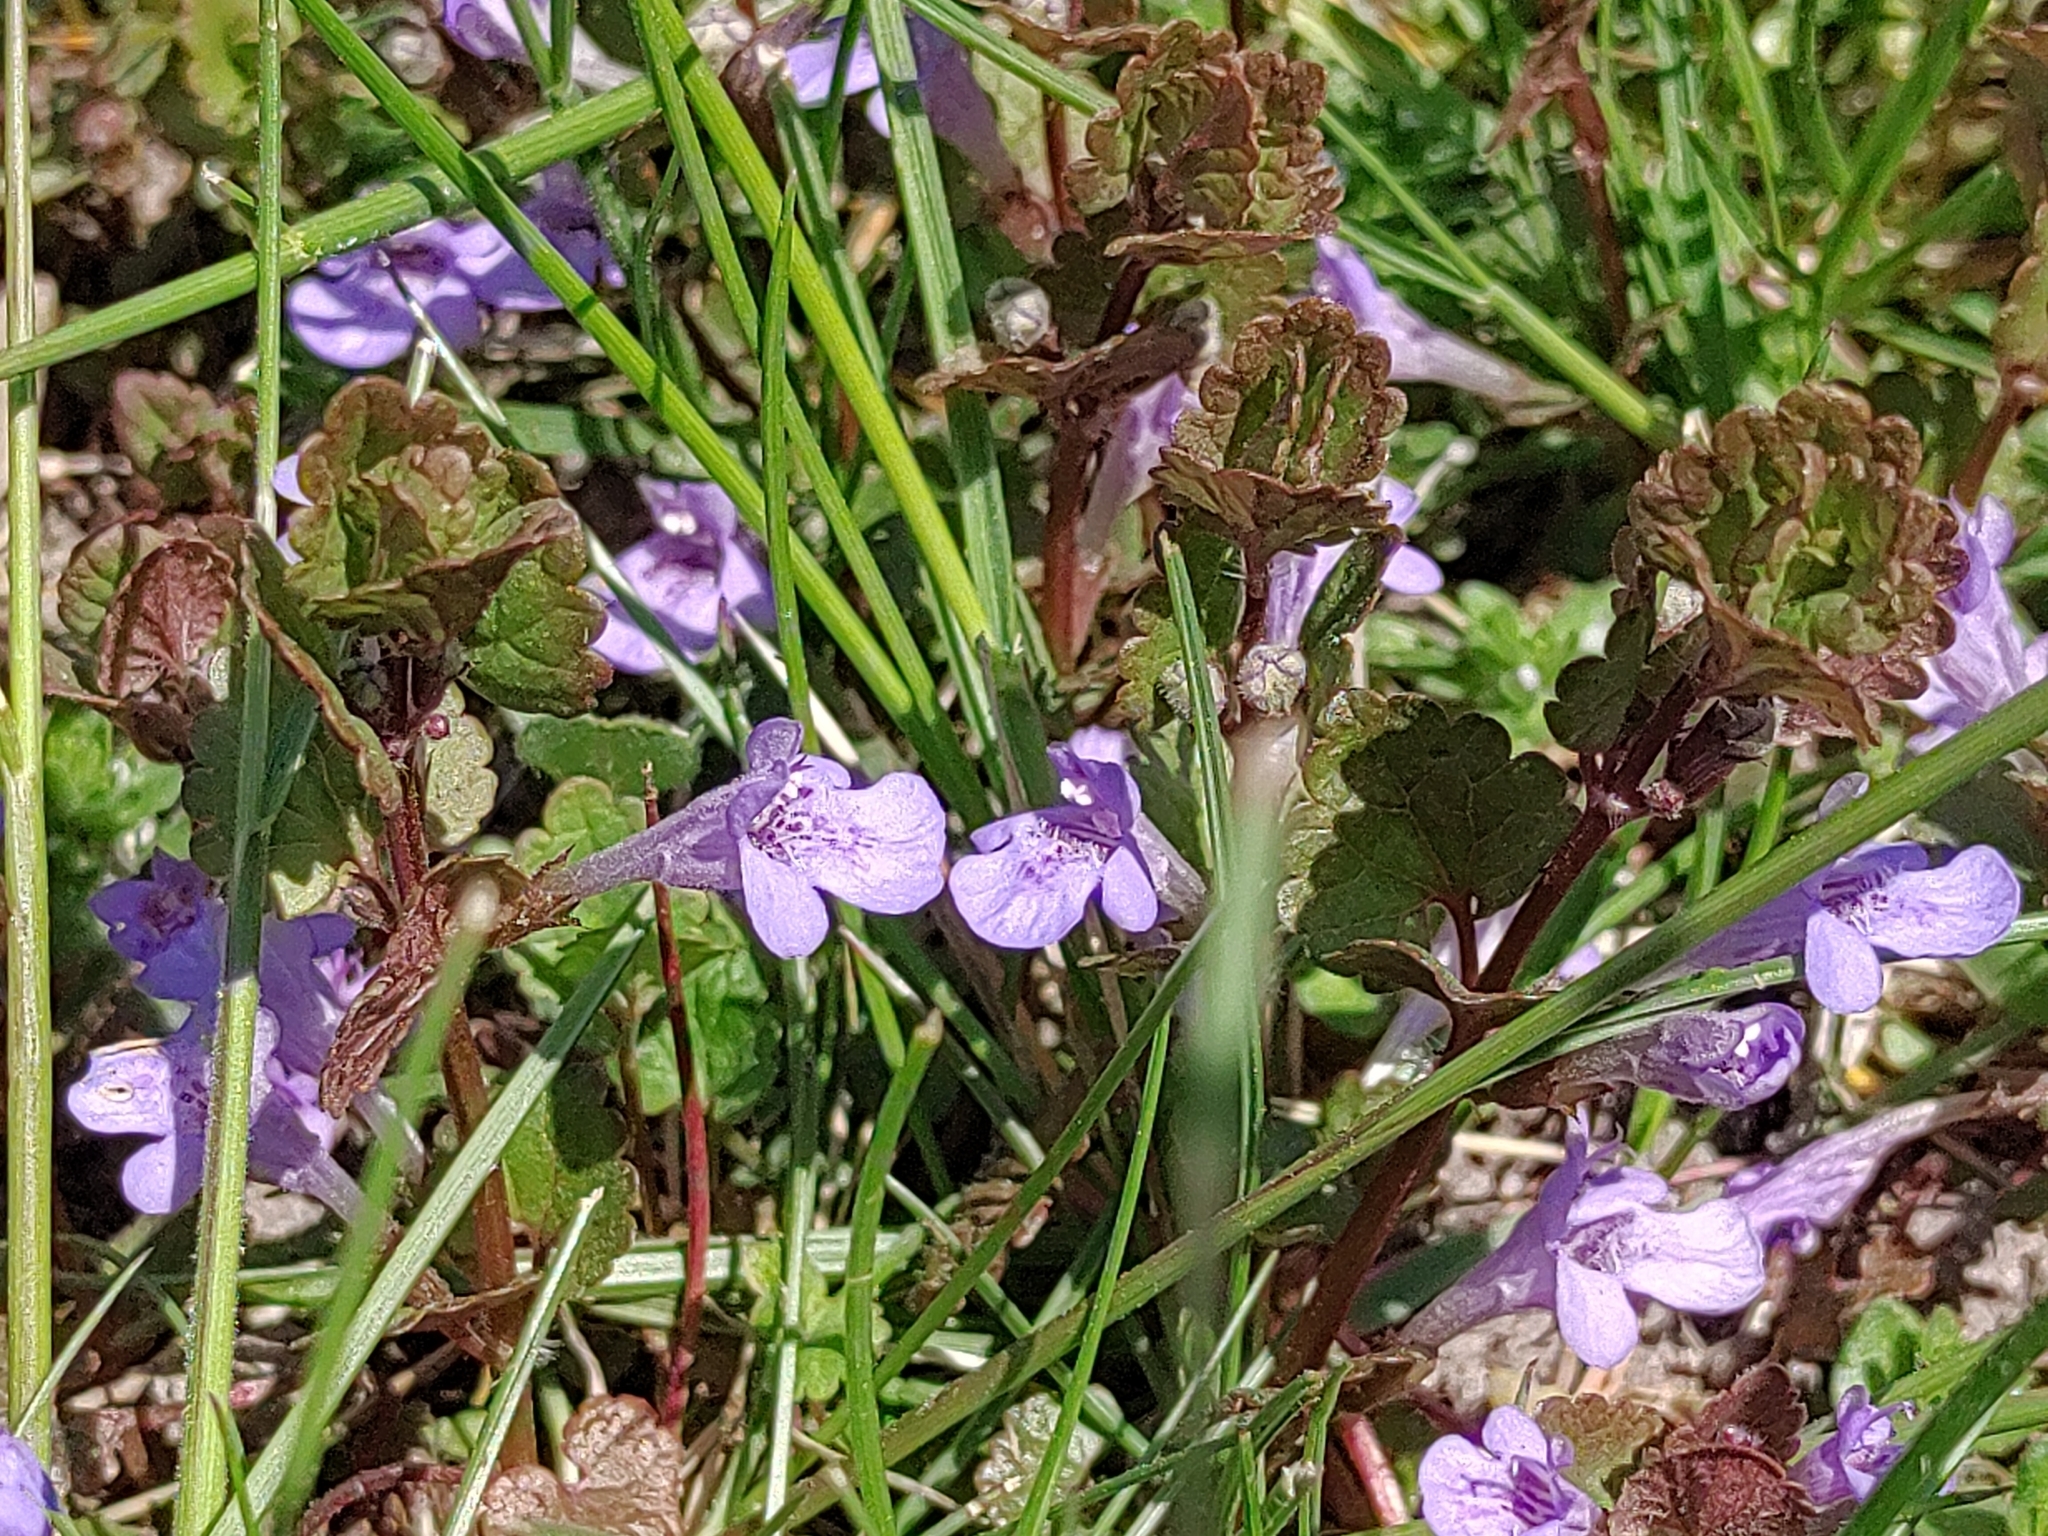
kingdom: Plantae
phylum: Tracheophyta
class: Magnoliopsida
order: Lamiales
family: Lamiaceae
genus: Glechoma
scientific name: Glechoma hederacea
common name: Ground ivy
